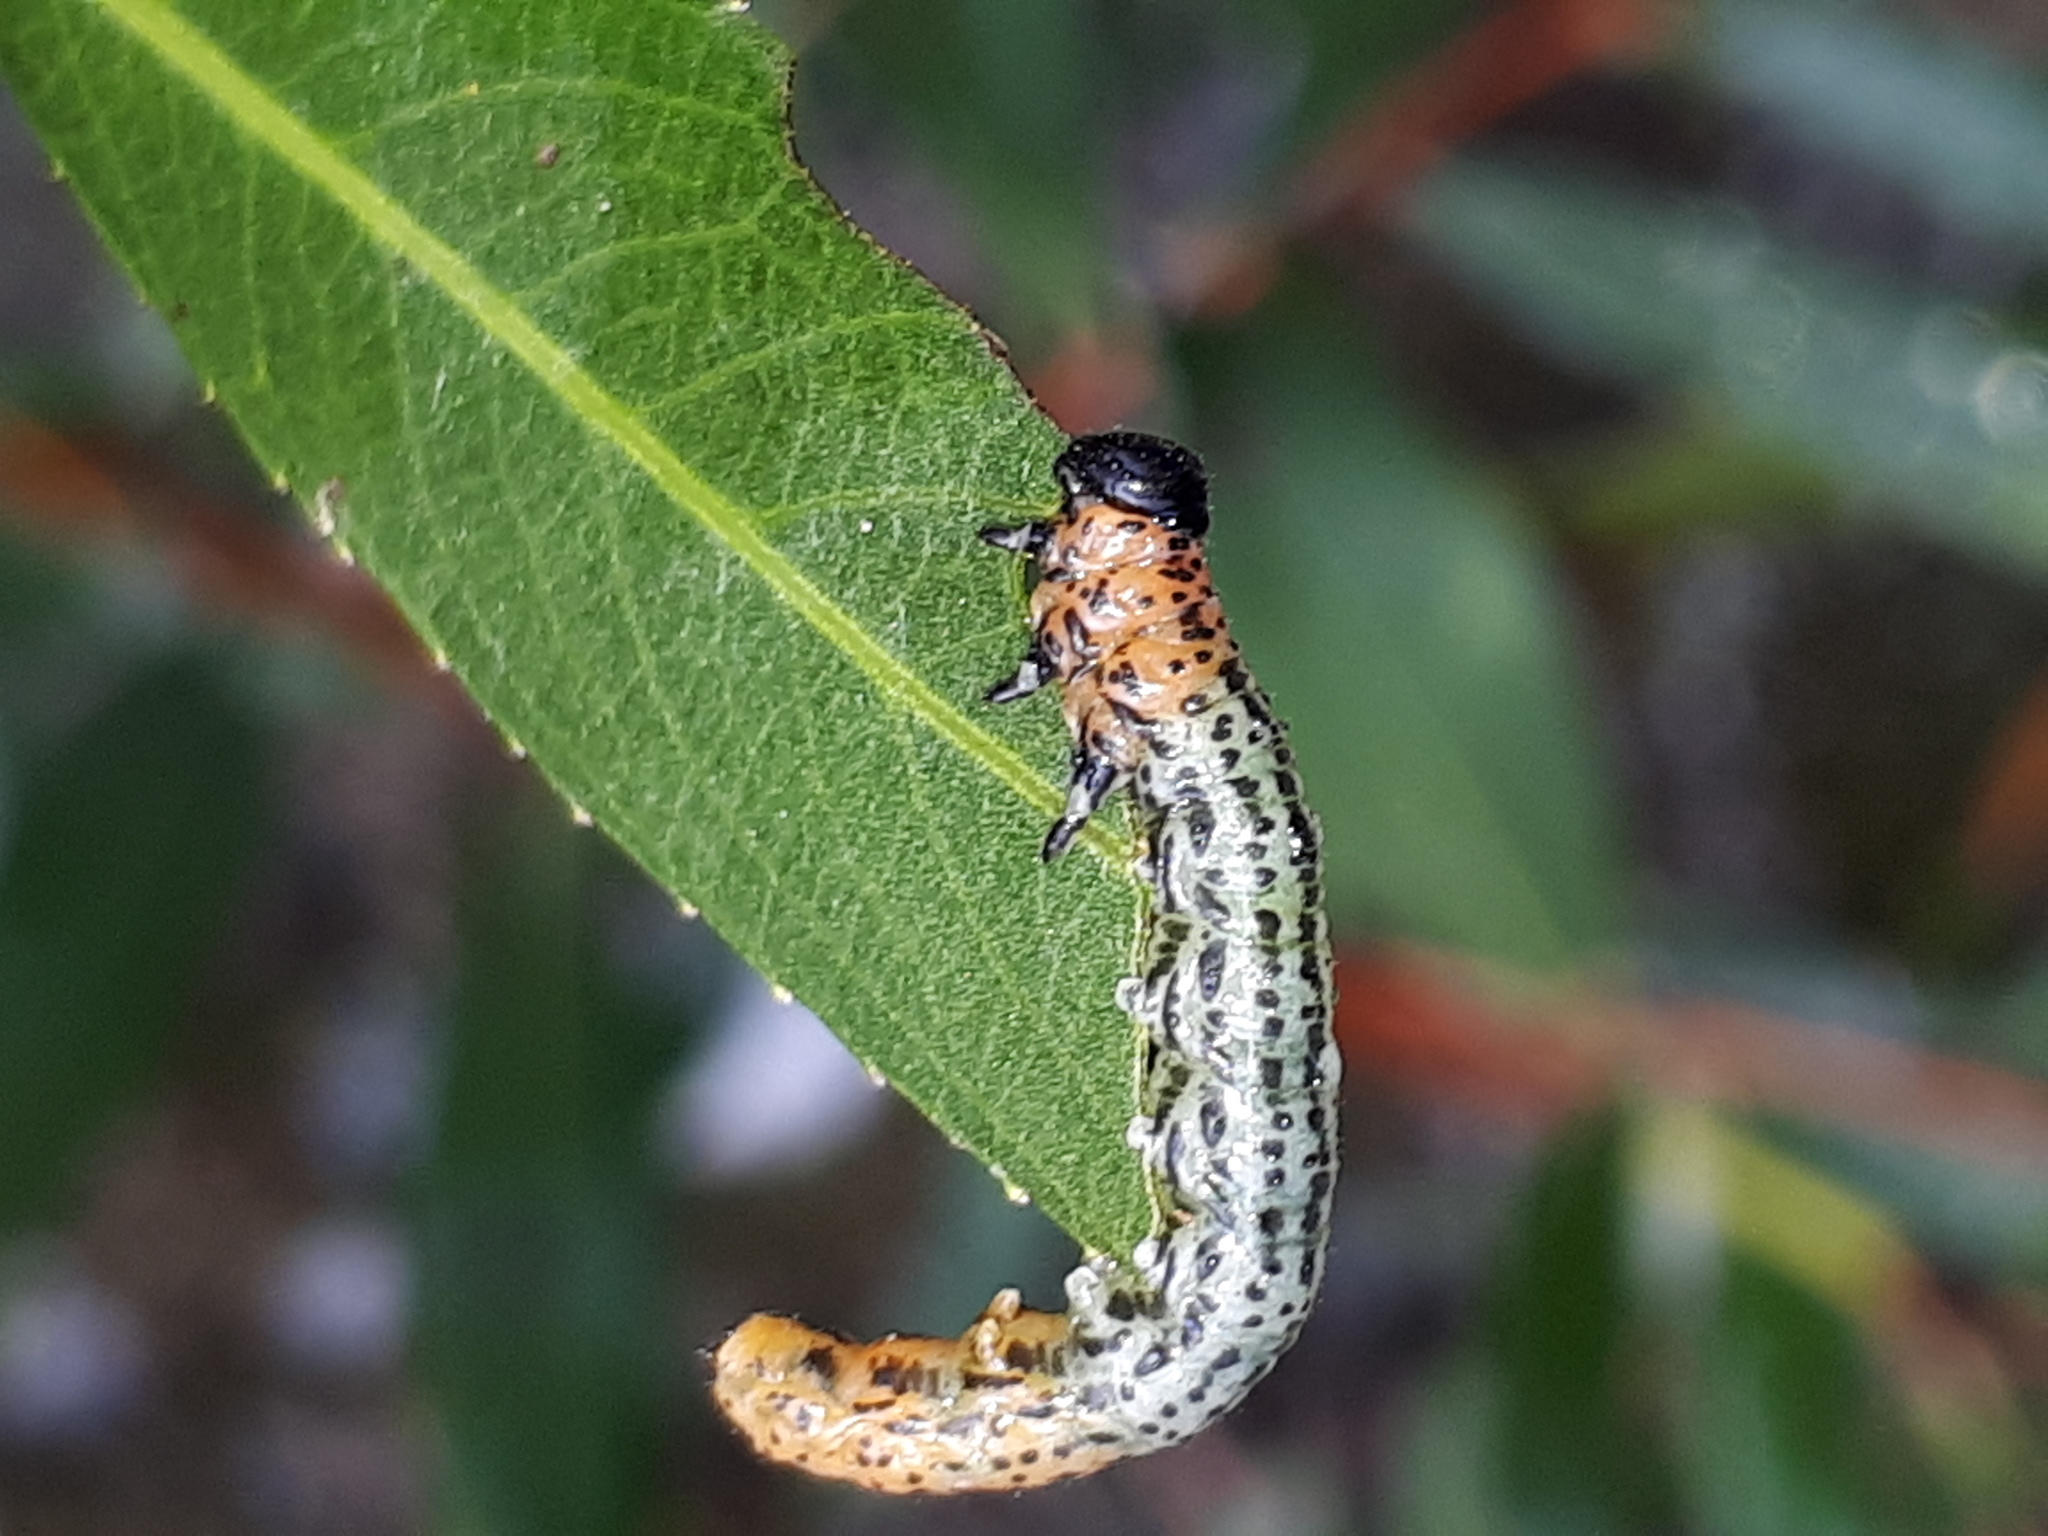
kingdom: Animalia
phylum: Arthropoda
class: Insecta
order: Hymenoptera
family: Tenthredinidae
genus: Nematus
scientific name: Nematus miliaris
